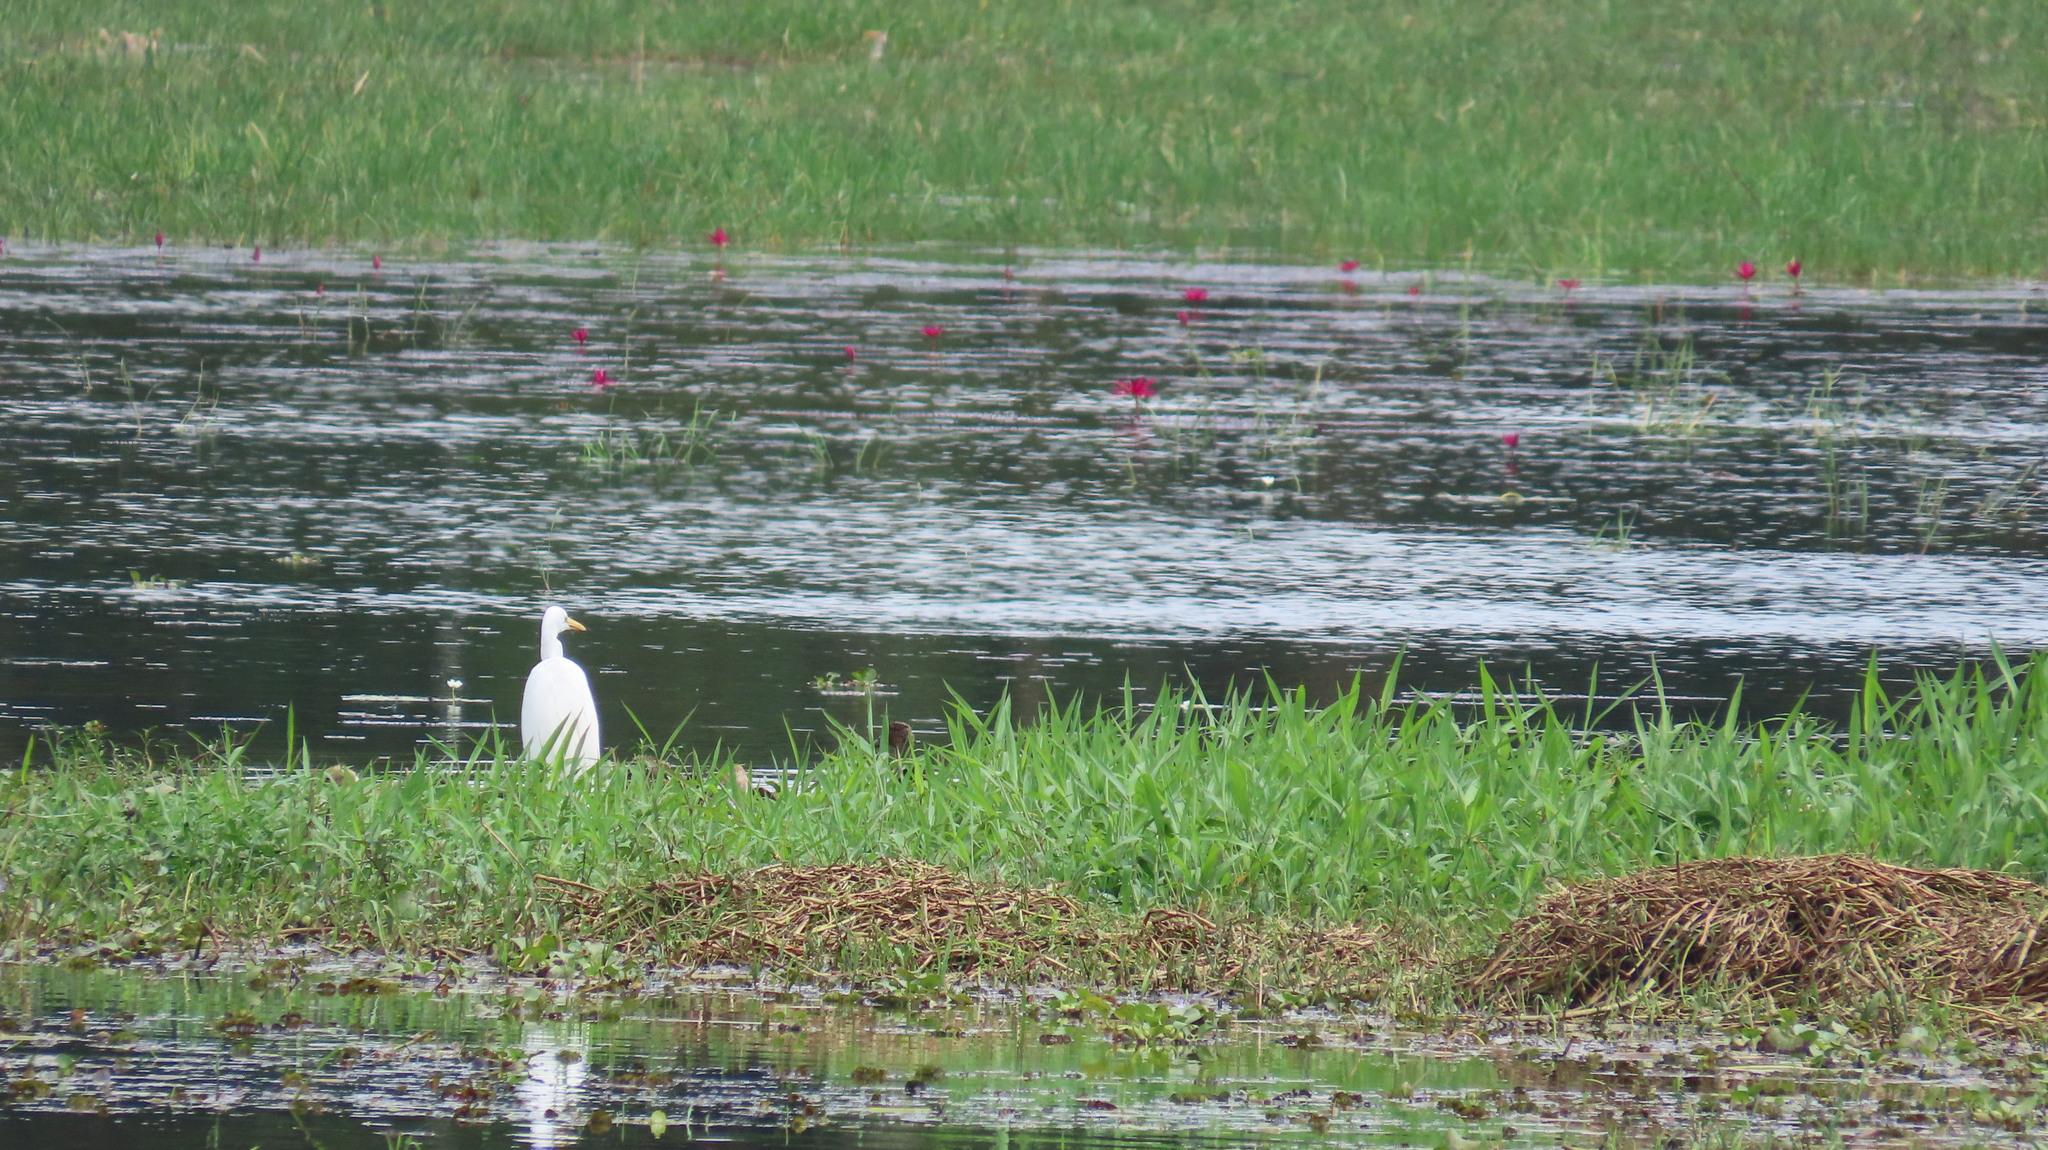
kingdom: Animalia
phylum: Chordata
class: Aves
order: Pelecaniformes
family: Ardeidae
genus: Egretta
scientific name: Egretta intermedia
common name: Intermediate egret
